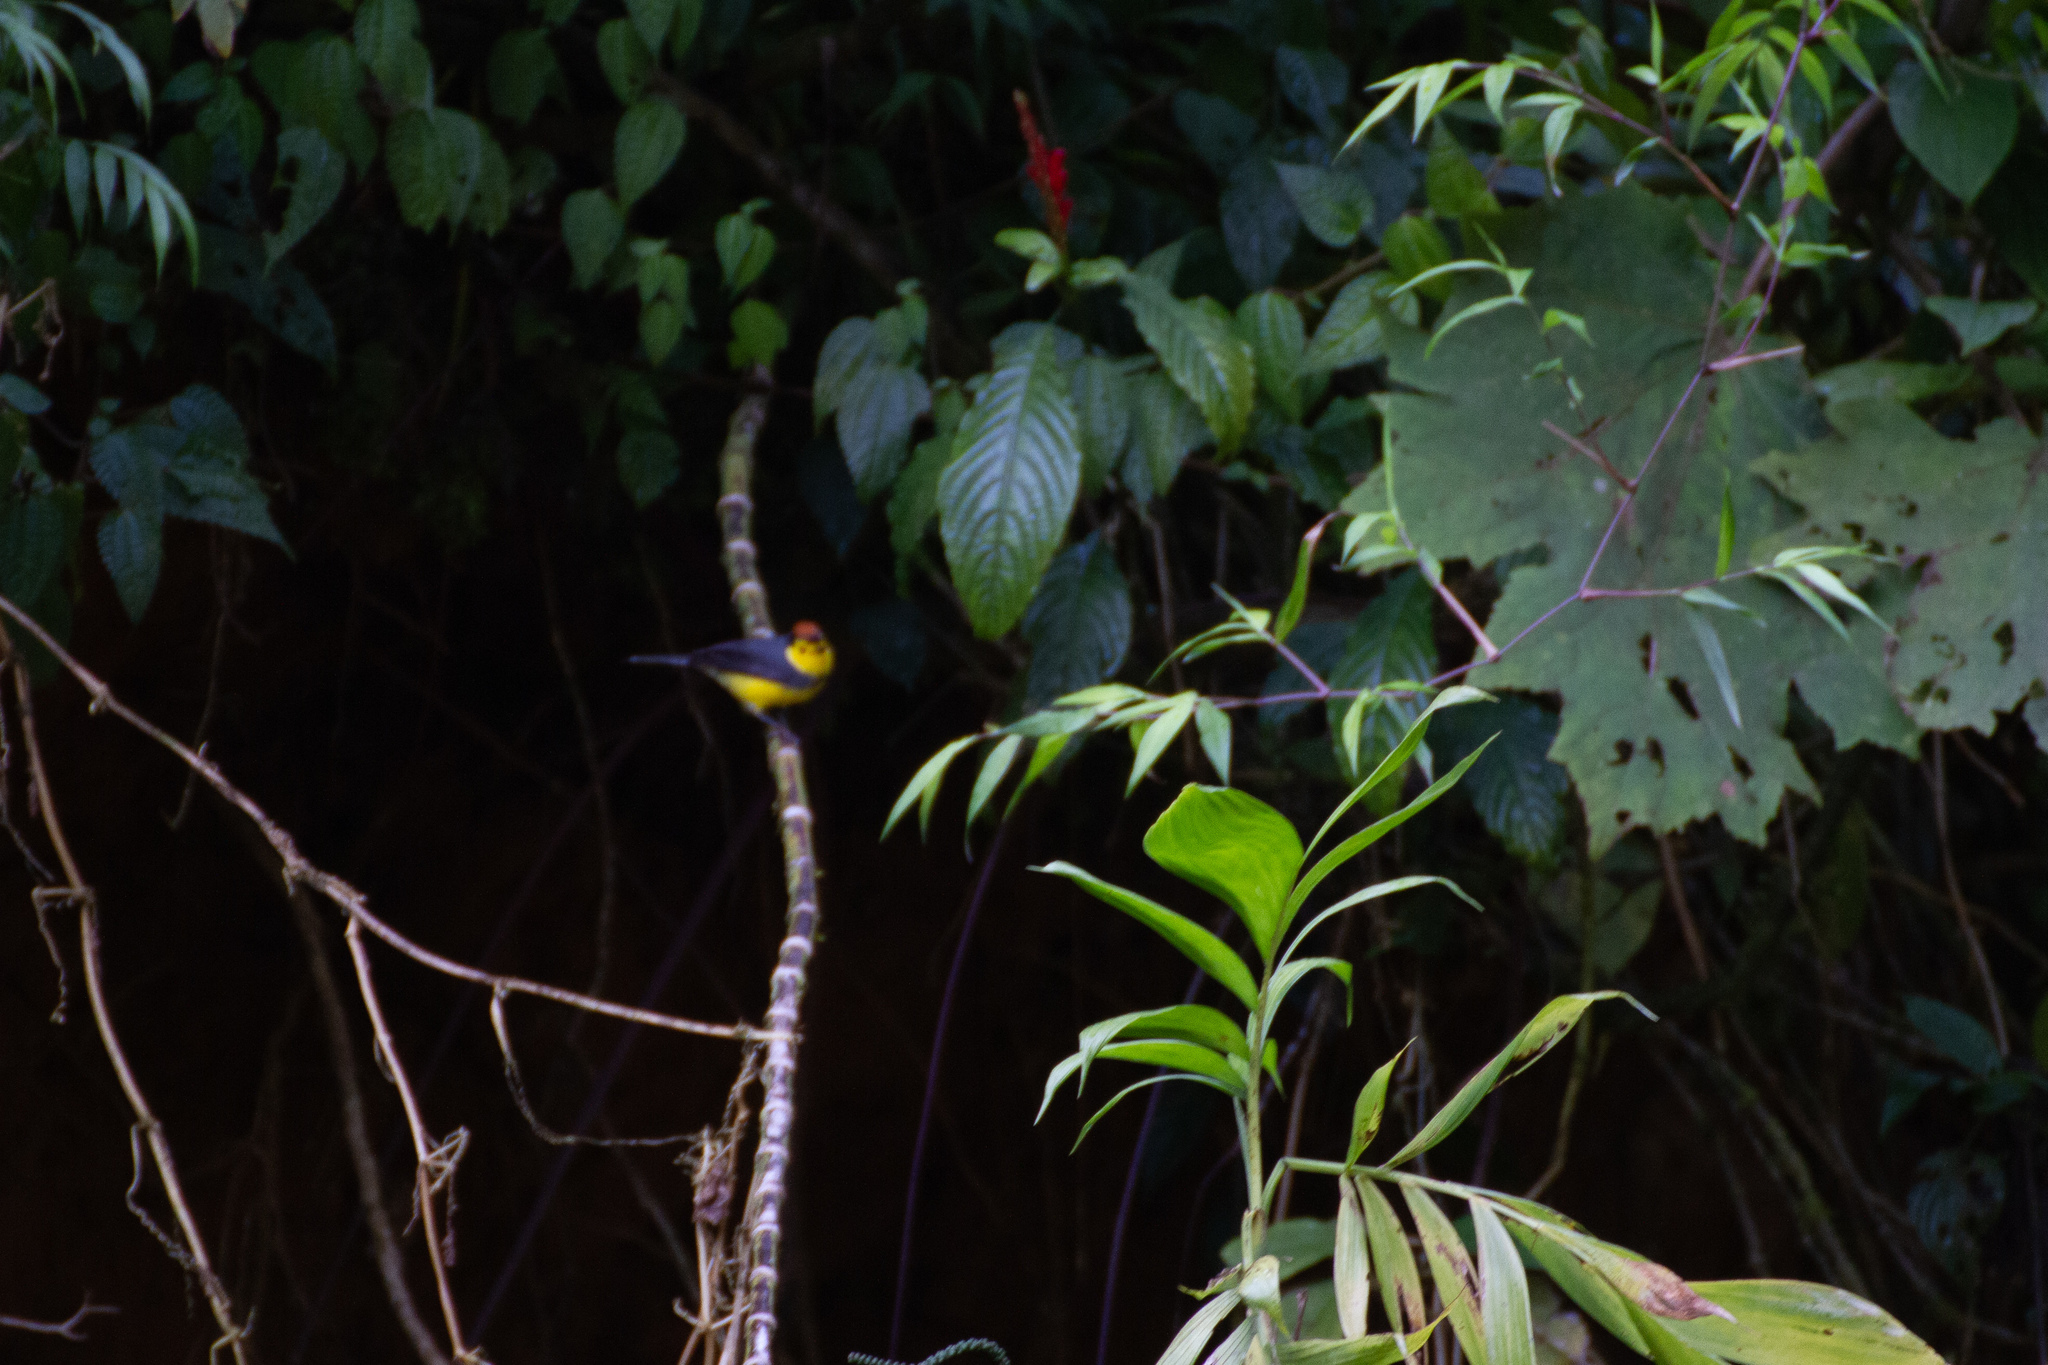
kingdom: Animalia
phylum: Chordata
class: Aves
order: Passeriformes
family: Parulidae
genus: Myioborus
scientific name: Myioborus torquatus
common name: Collared whitestart
